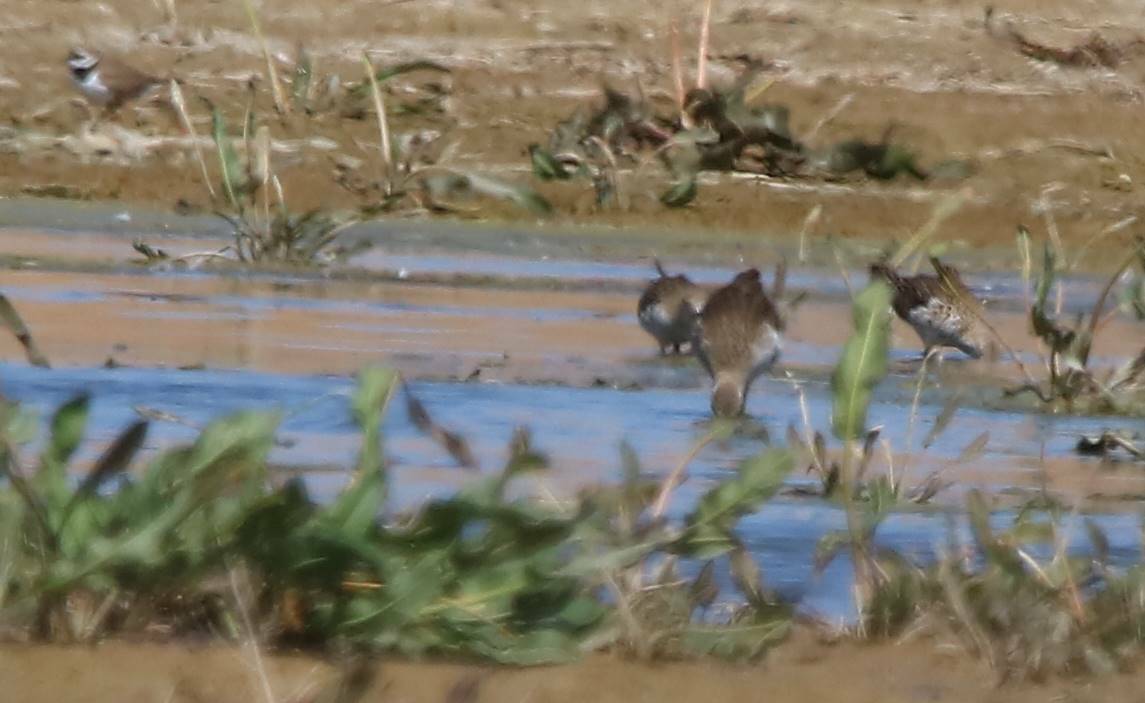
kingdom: Animalia
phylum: Chordata
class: Aves
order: Charadriiformes
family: Scolopacidae
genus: Calidris
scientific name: Calidris pugnax
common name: Ruff
